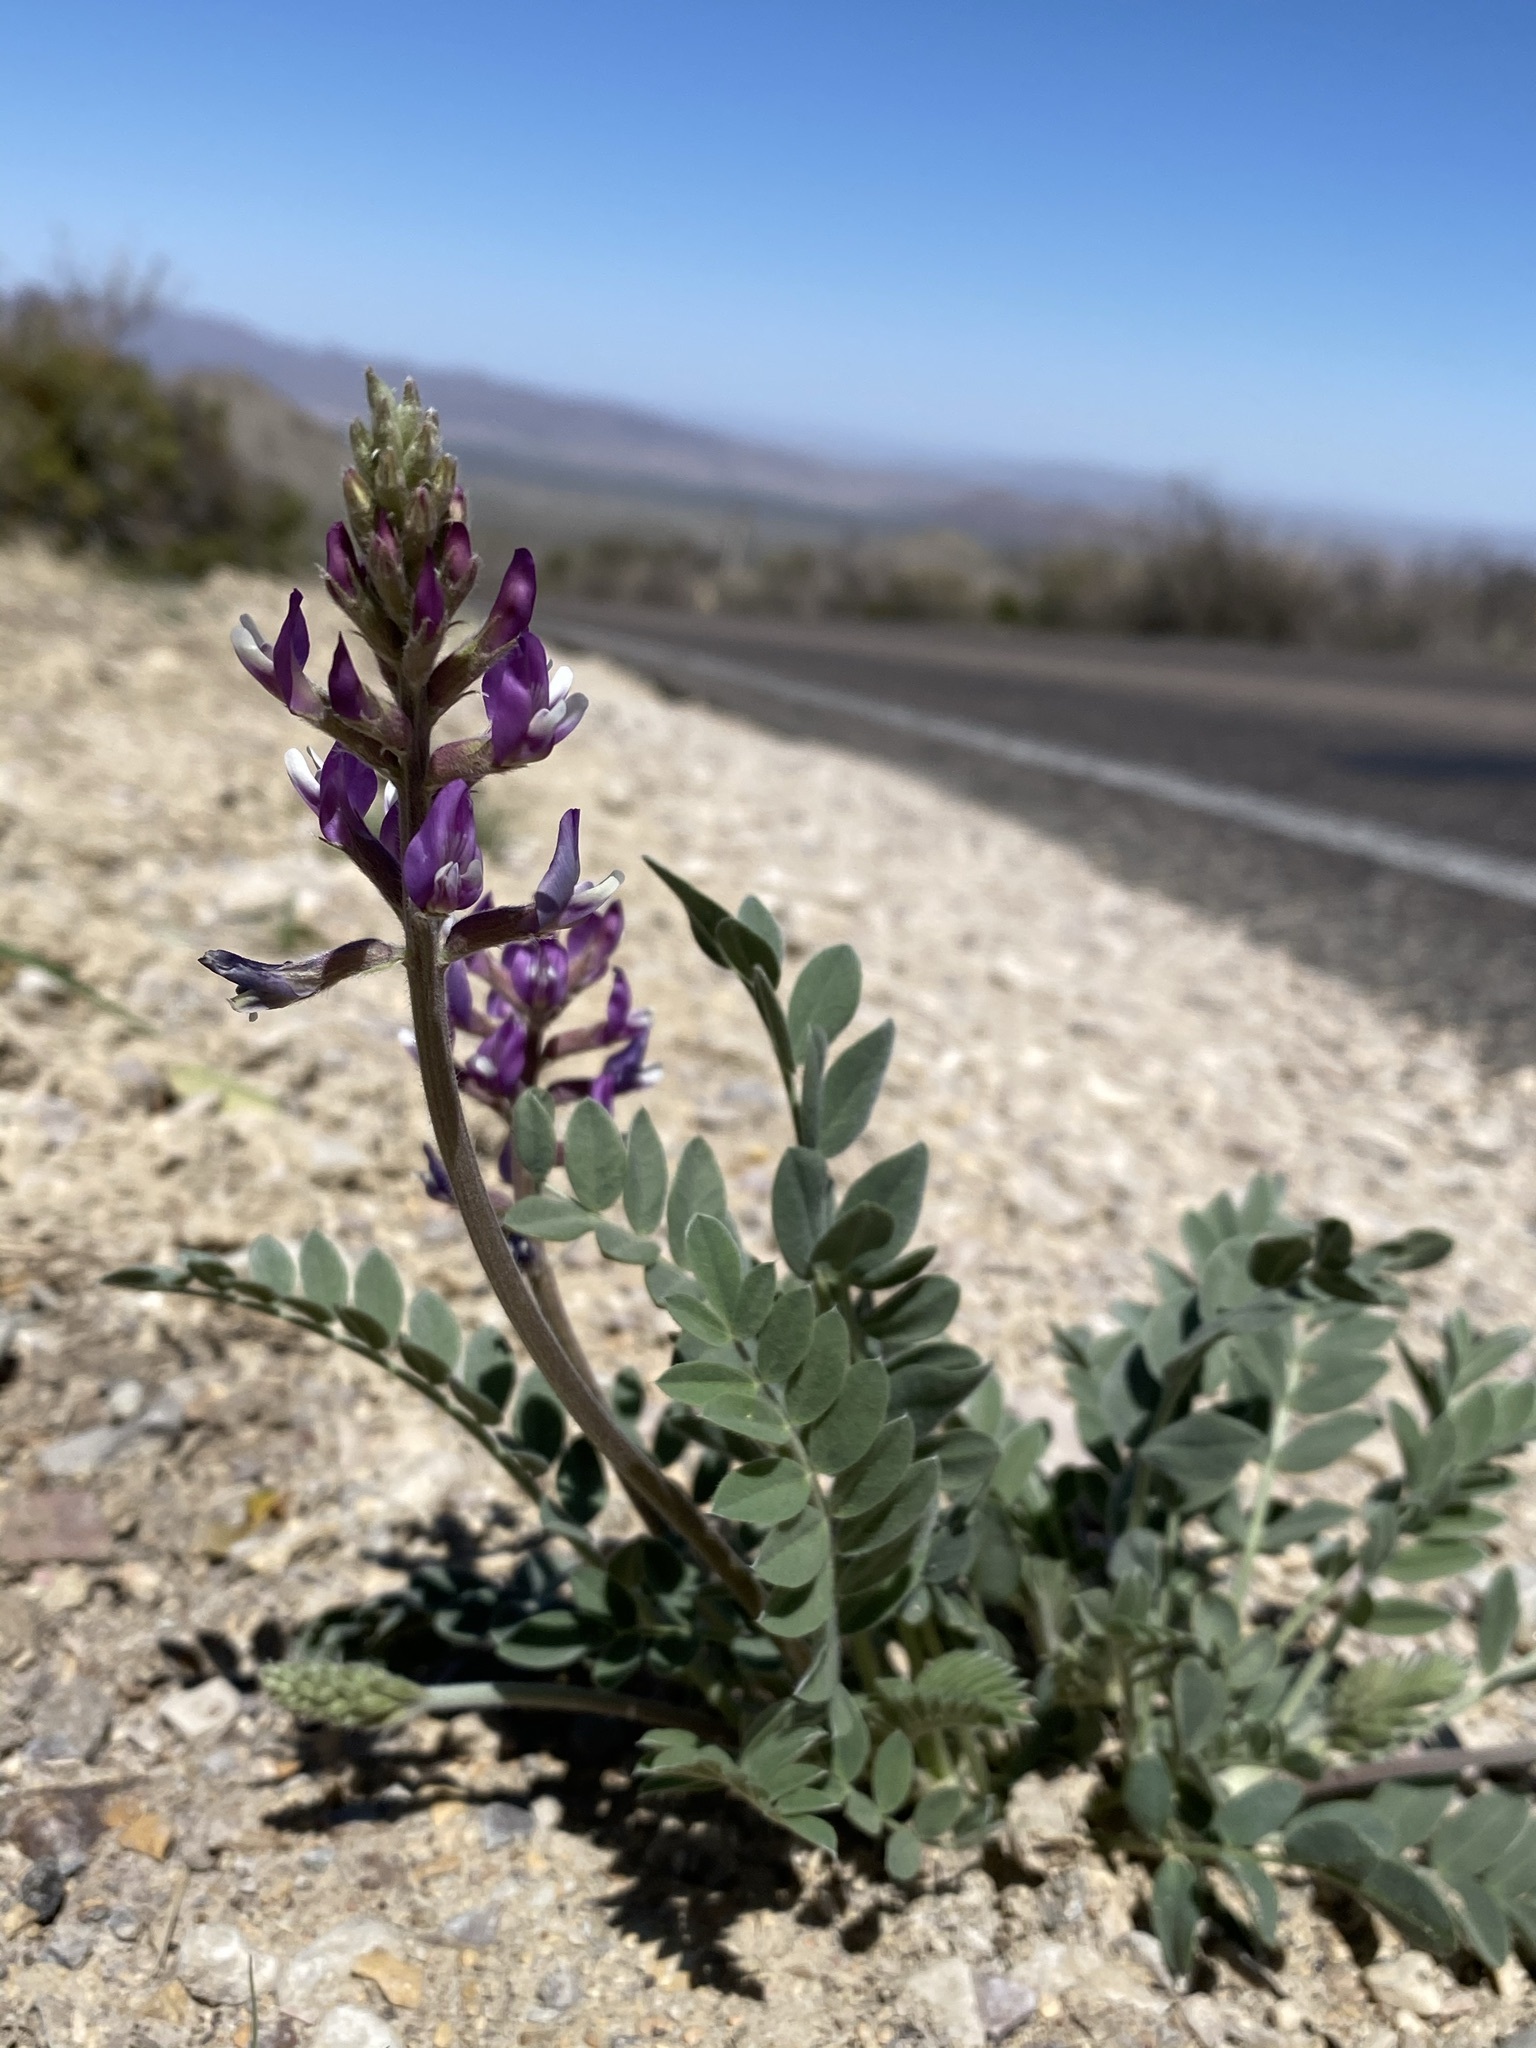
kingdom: Plantae
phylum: Tracheophyta
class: Magnoliopsida
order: Fabales
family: Fabaceae
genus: Astragalus
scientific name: Astragalus mollissimus
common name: Woolly locoweed
